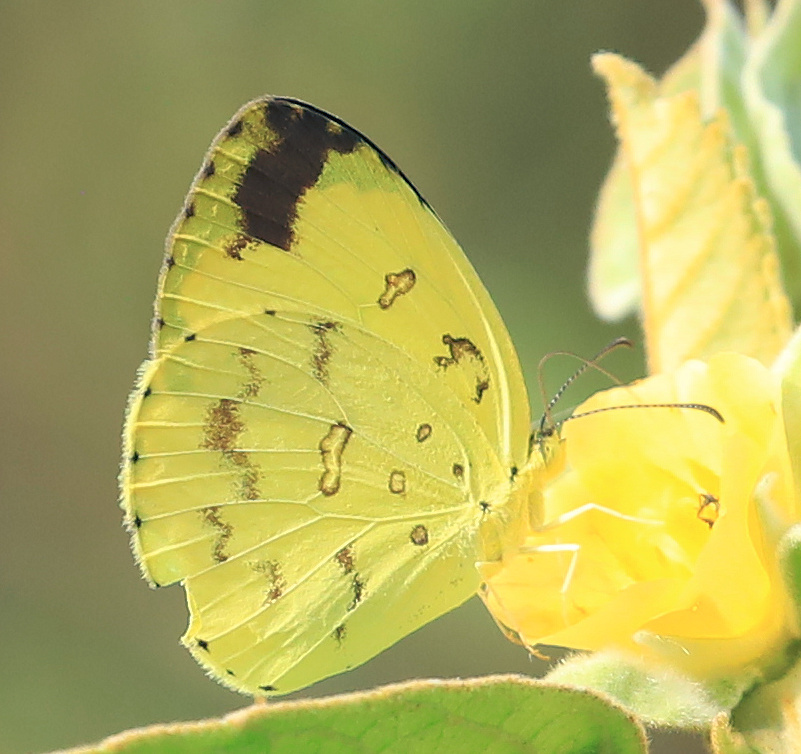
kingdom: Animalia
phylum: Arthropoda
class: Insecta
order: Lepidoptera
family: Pieridae
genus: Eurema
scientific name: Eurema hecabe
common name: Pale grass yellow
